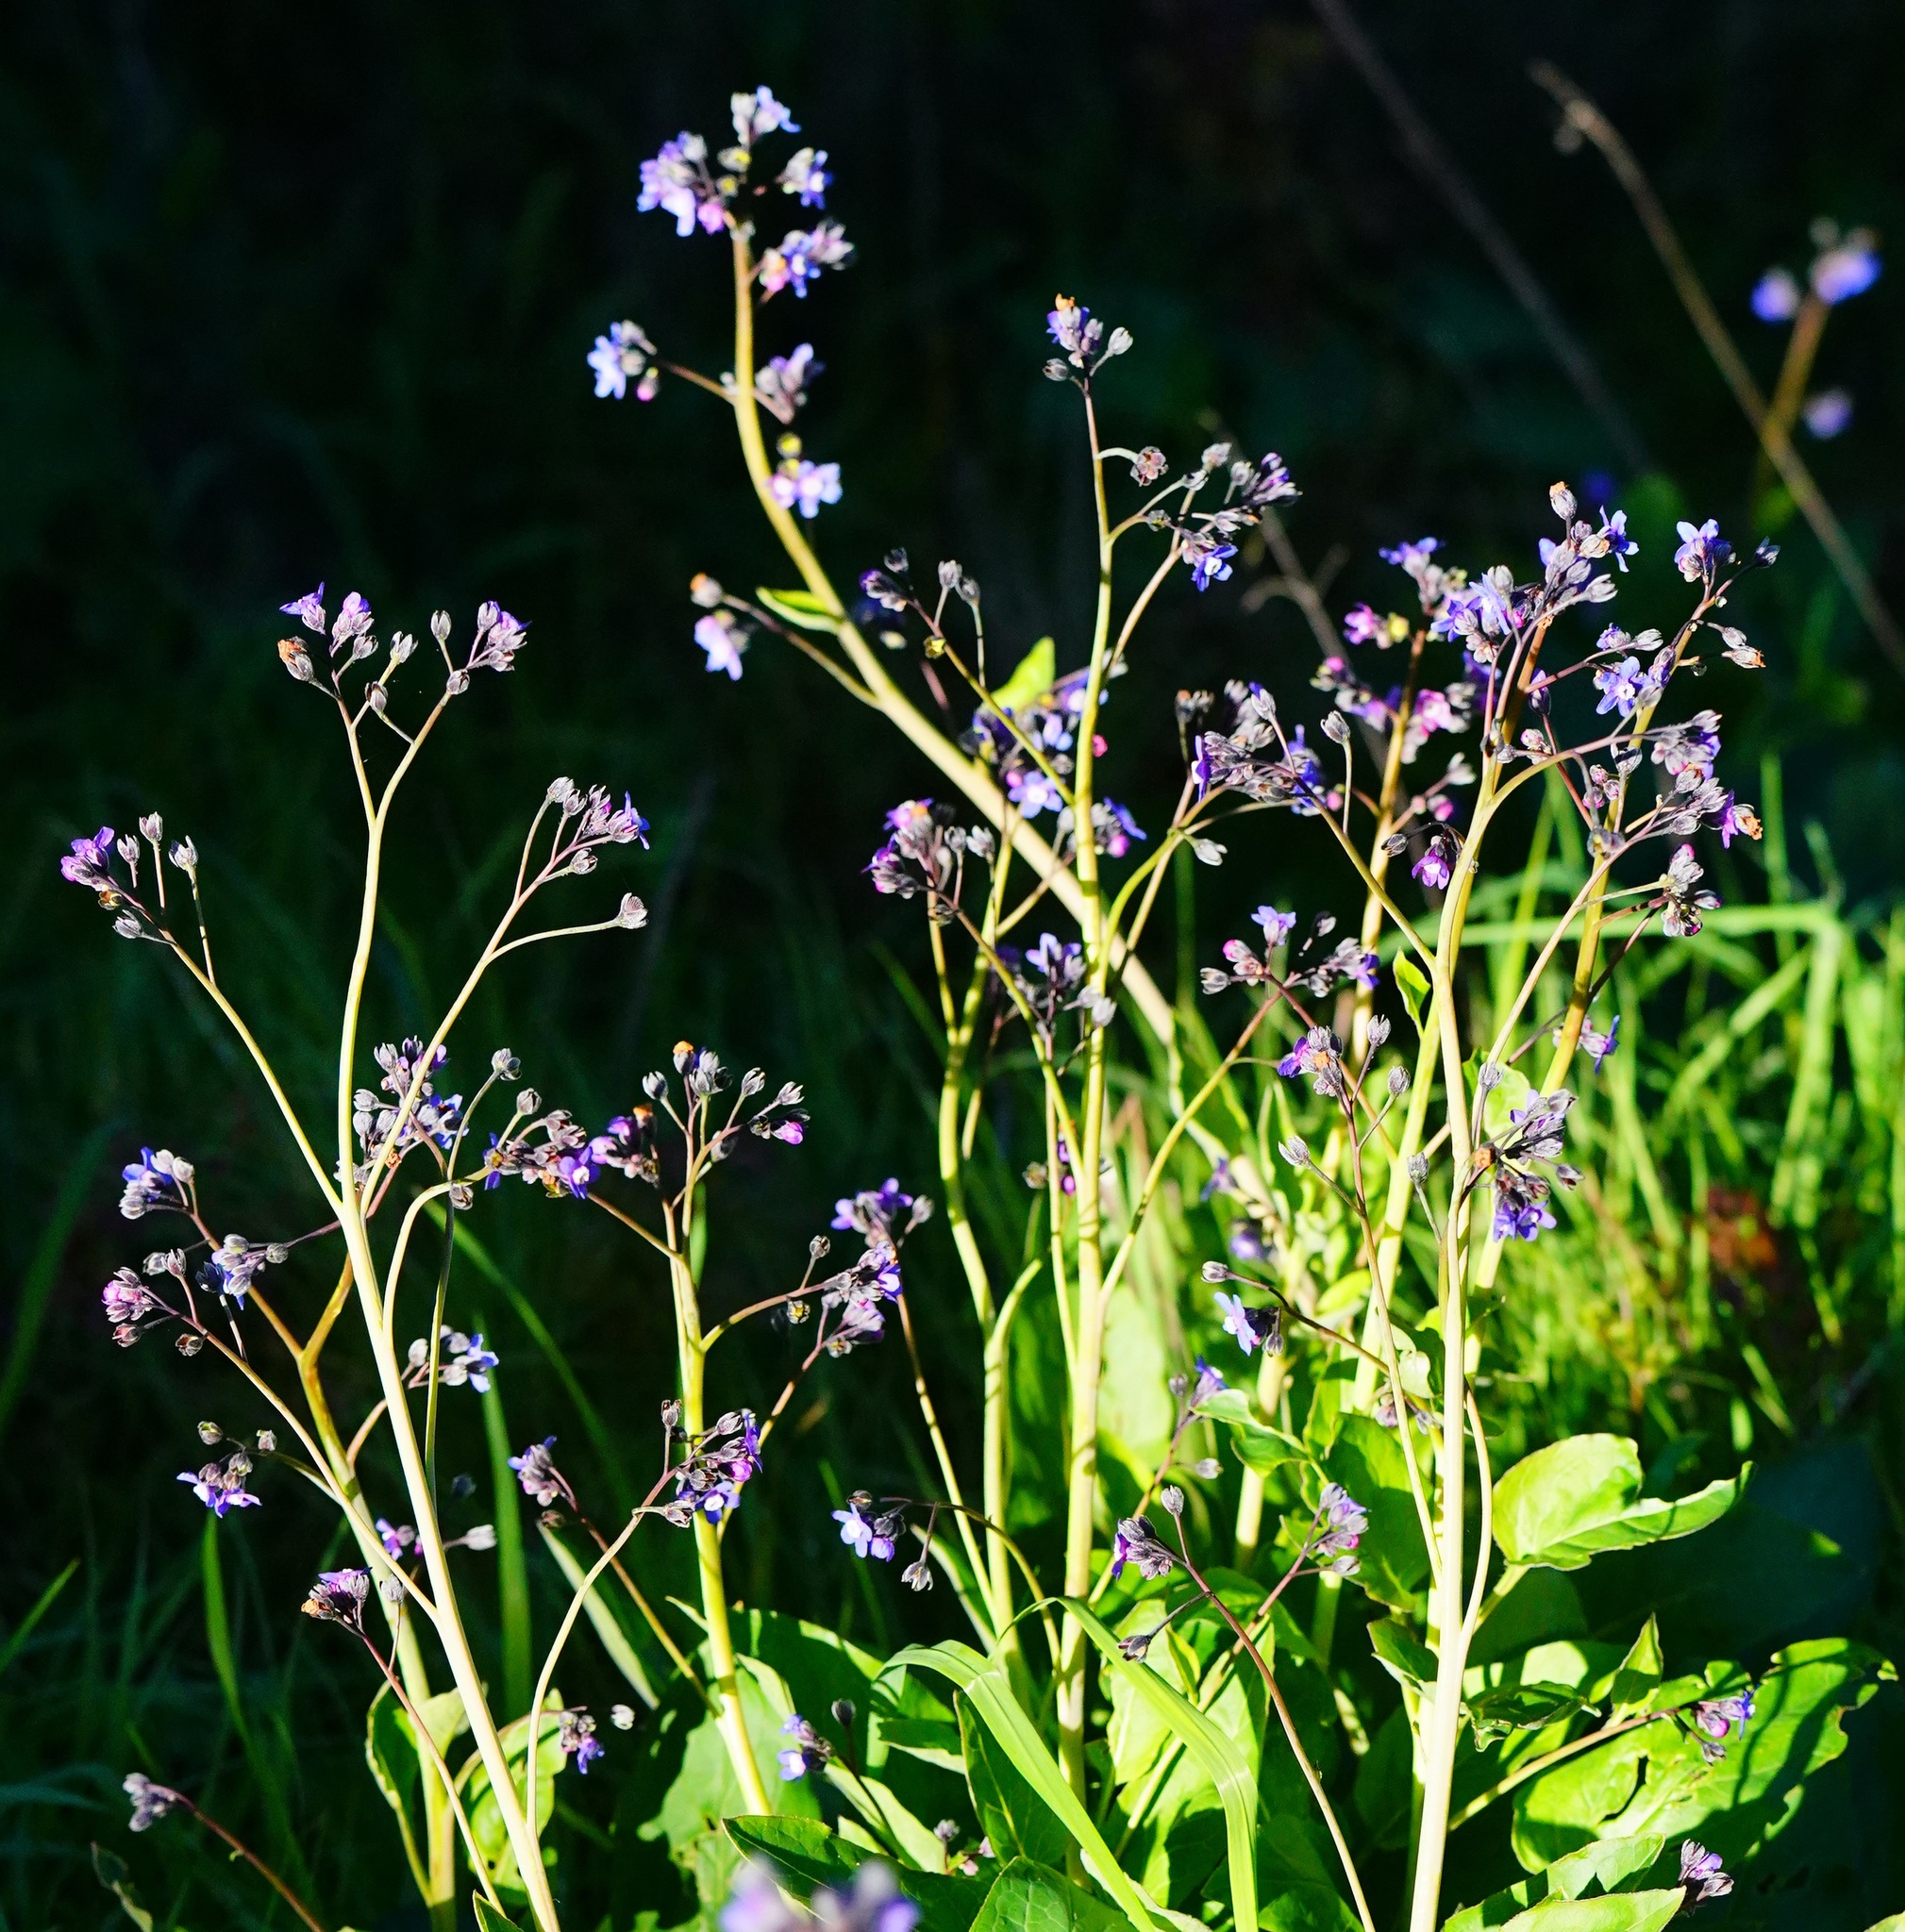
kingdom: Plantae
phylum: Tracheophyta
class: Magnoliopsida
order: Boraginales
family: Boraginaceae
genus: Adelinia
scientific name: Adelinia grande
